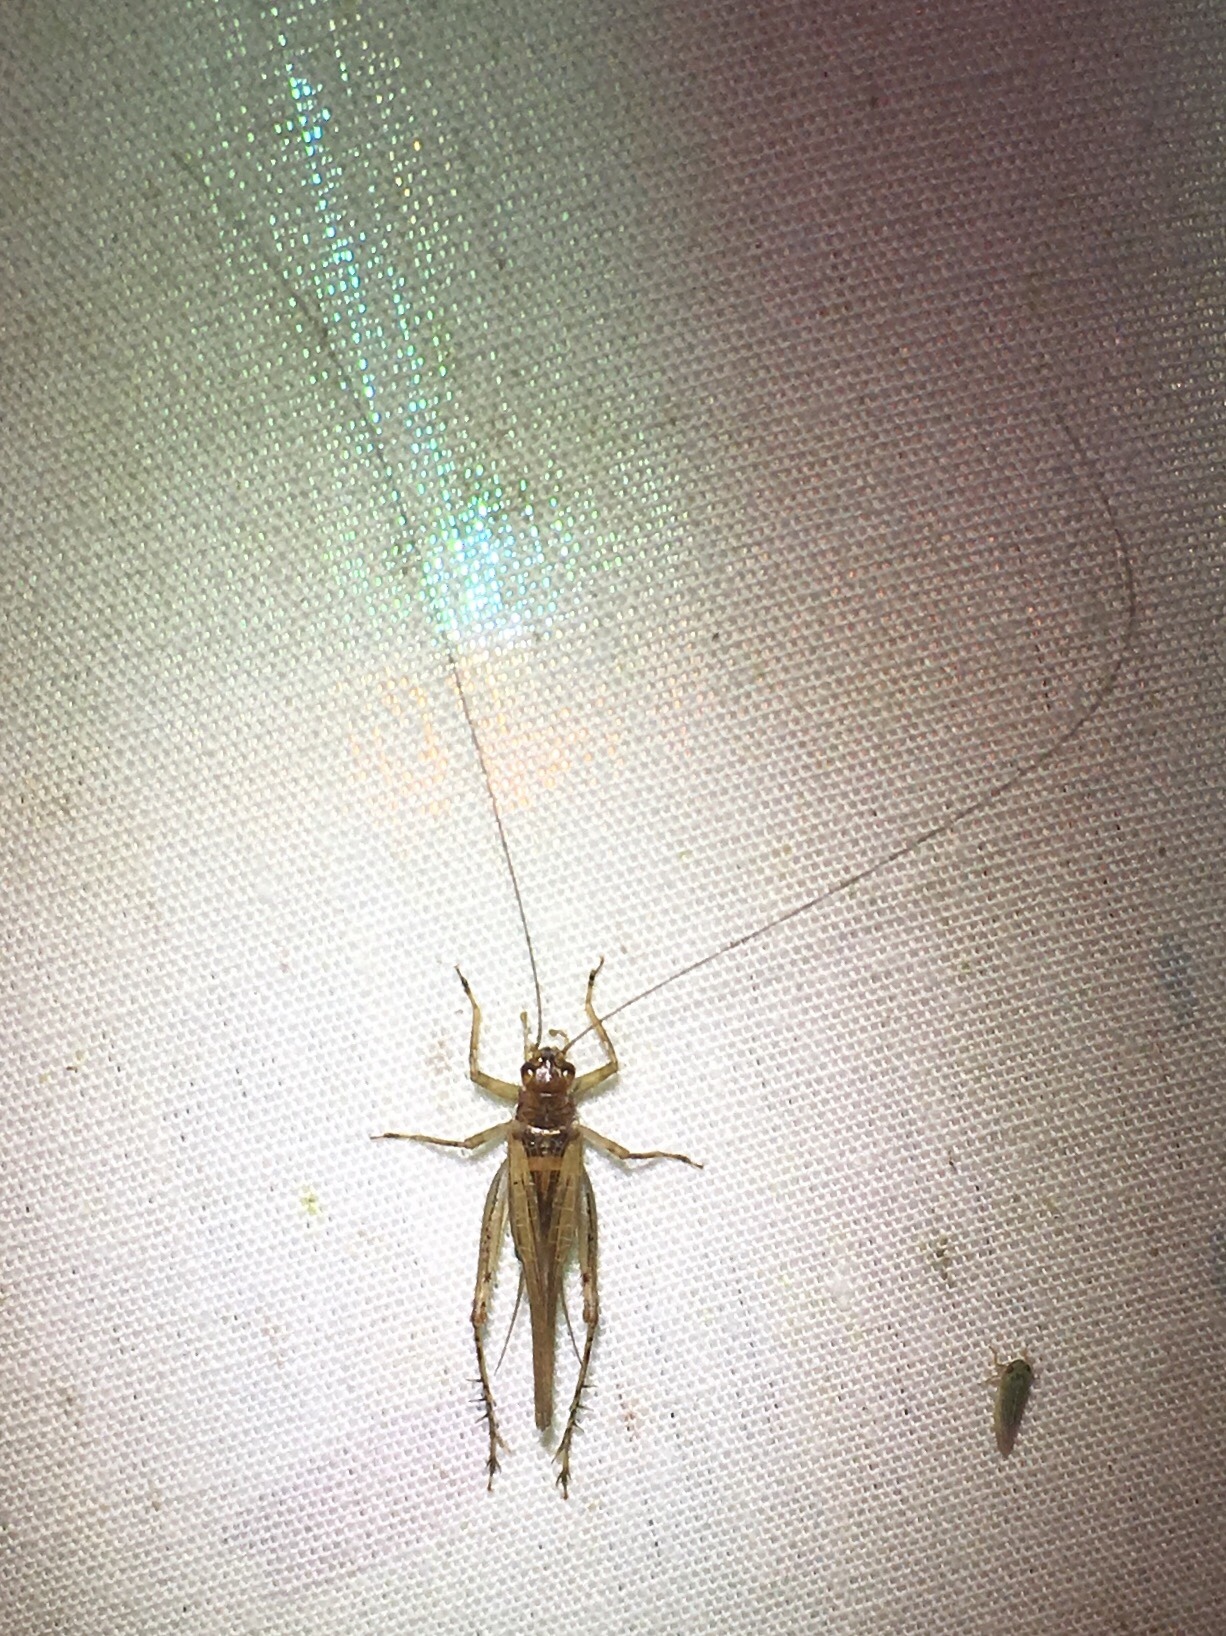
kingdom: Animalia
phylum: Arthropoda
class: Insecta
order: Orthoptera
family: Trigonidiidae
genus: Anaxipha
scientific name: Anaxipha exigua
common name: Say's bush cricket
